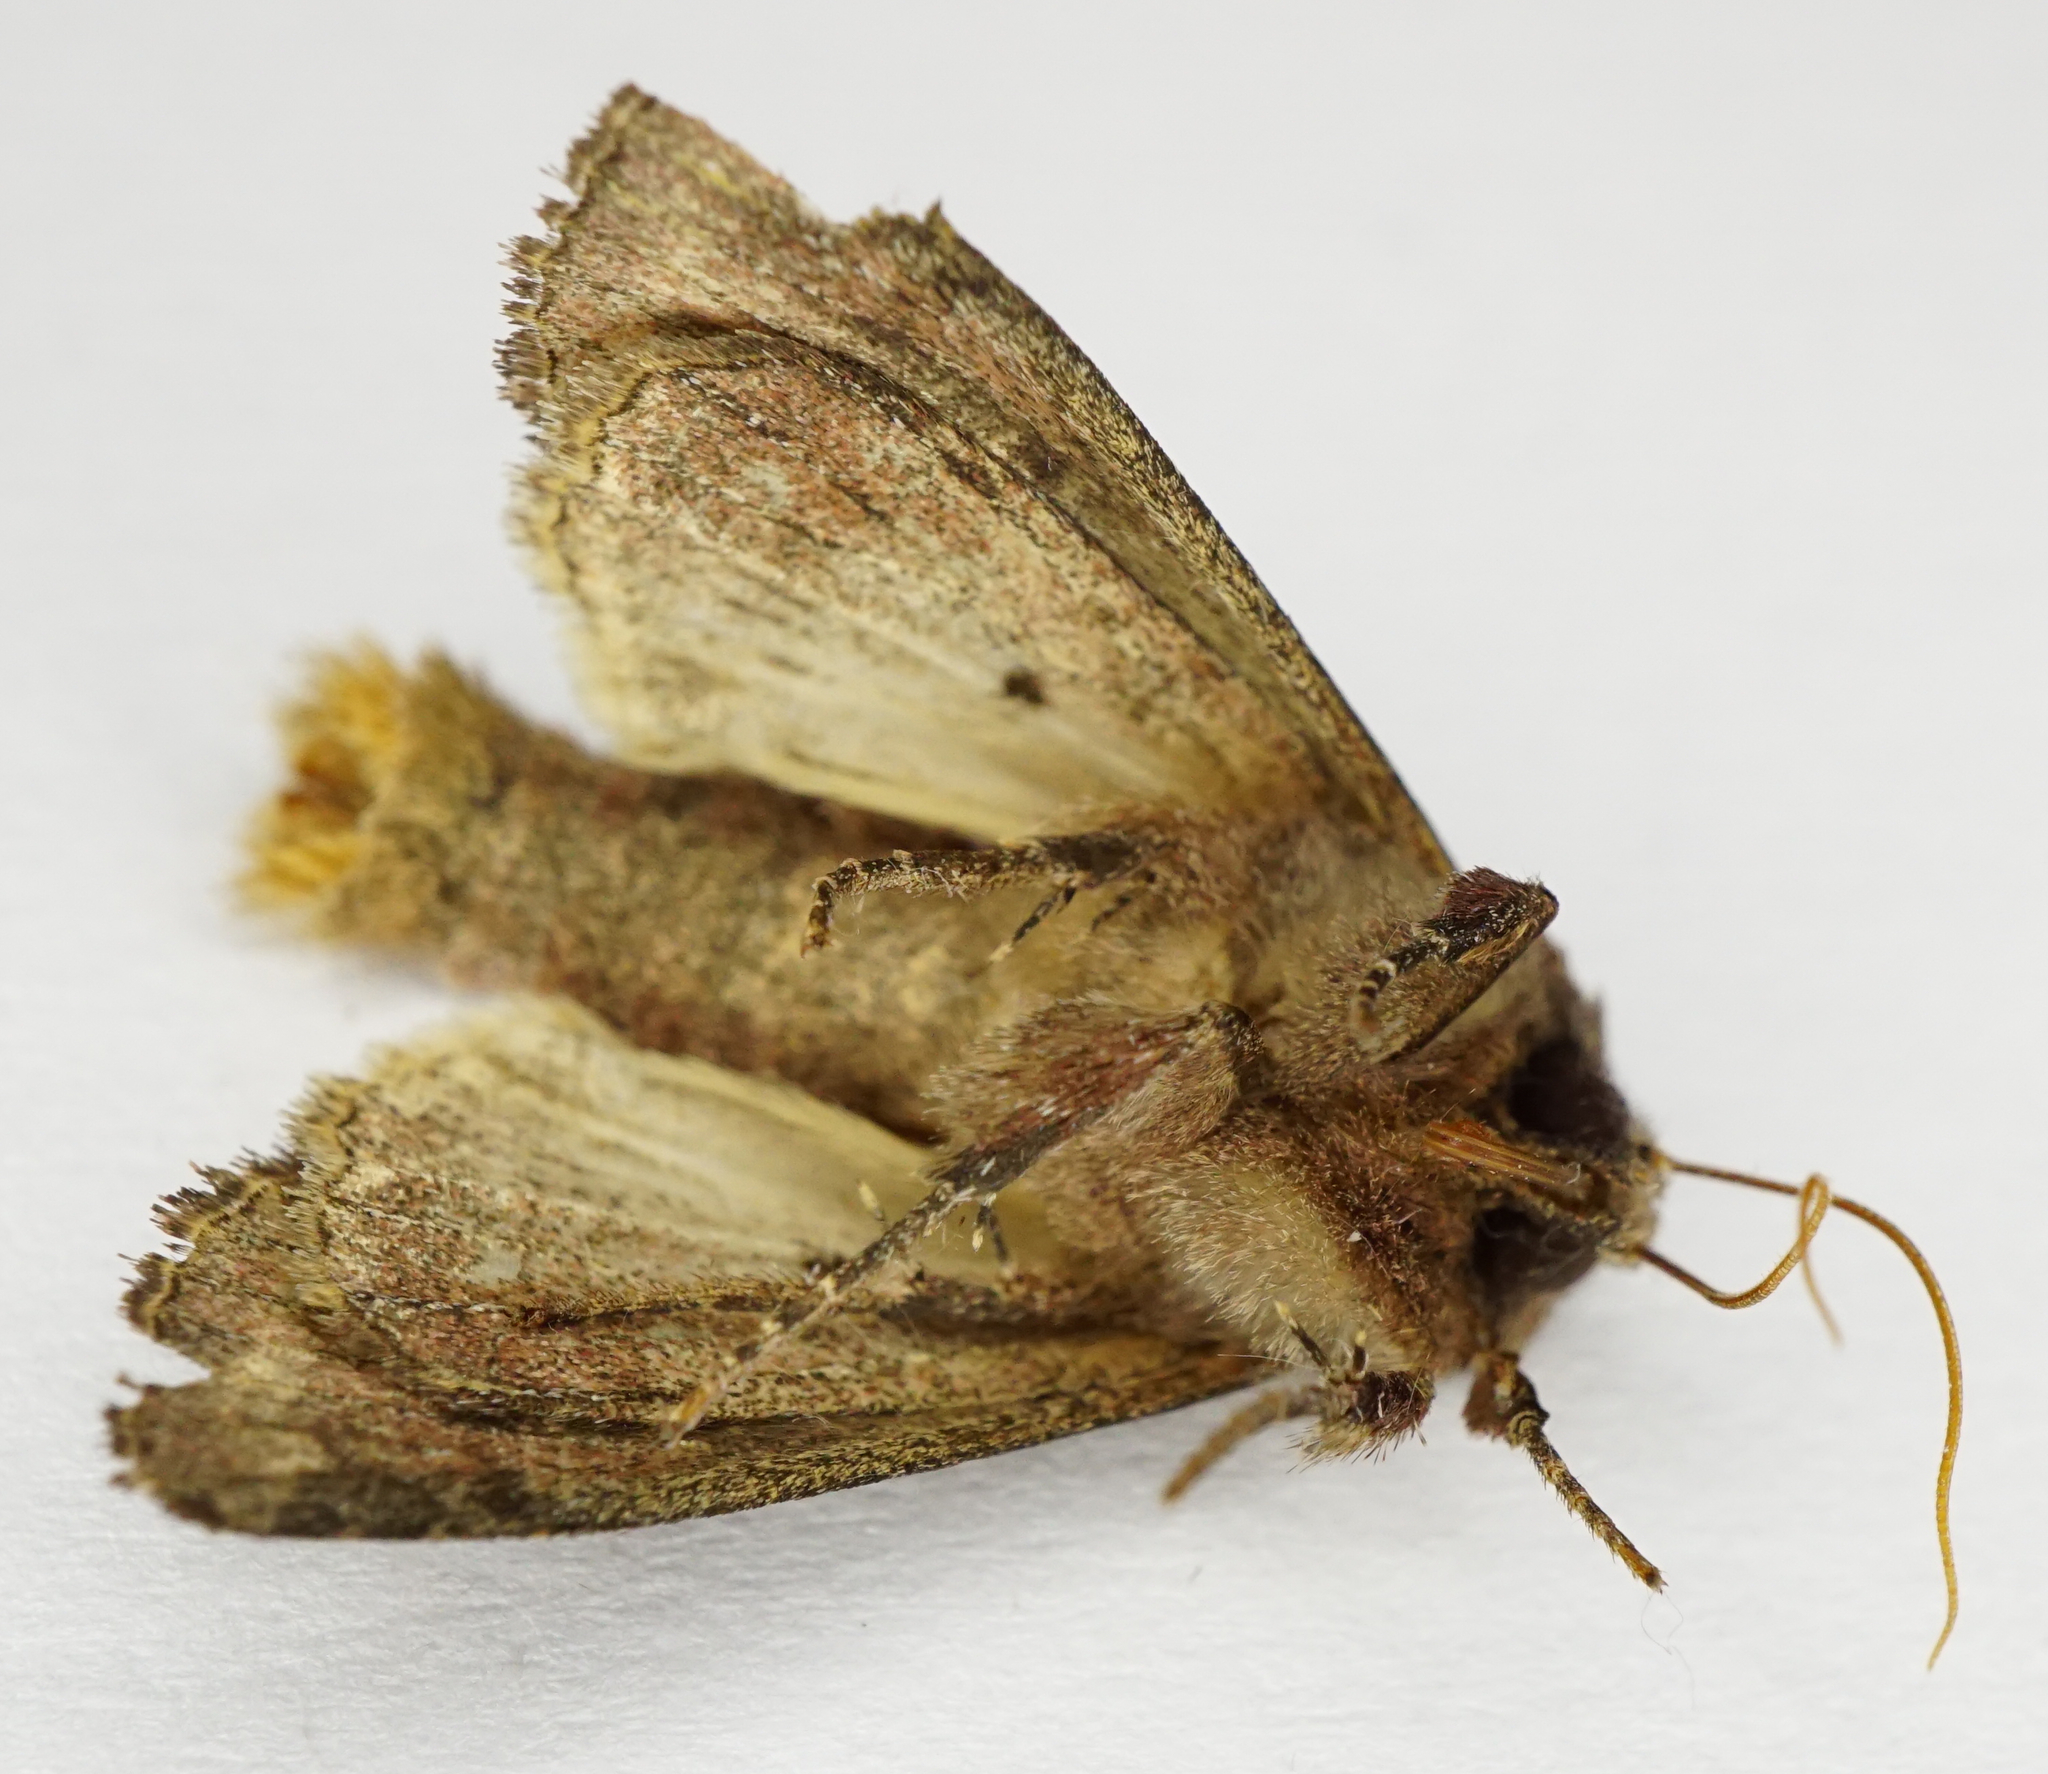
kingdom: Animalia
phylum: Arthropoda
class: Insecta
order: Lepidoptera
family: Noctuidae
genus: Lacanobia
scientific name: Lacanobia oleracea
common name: Bright-line brown-eye
